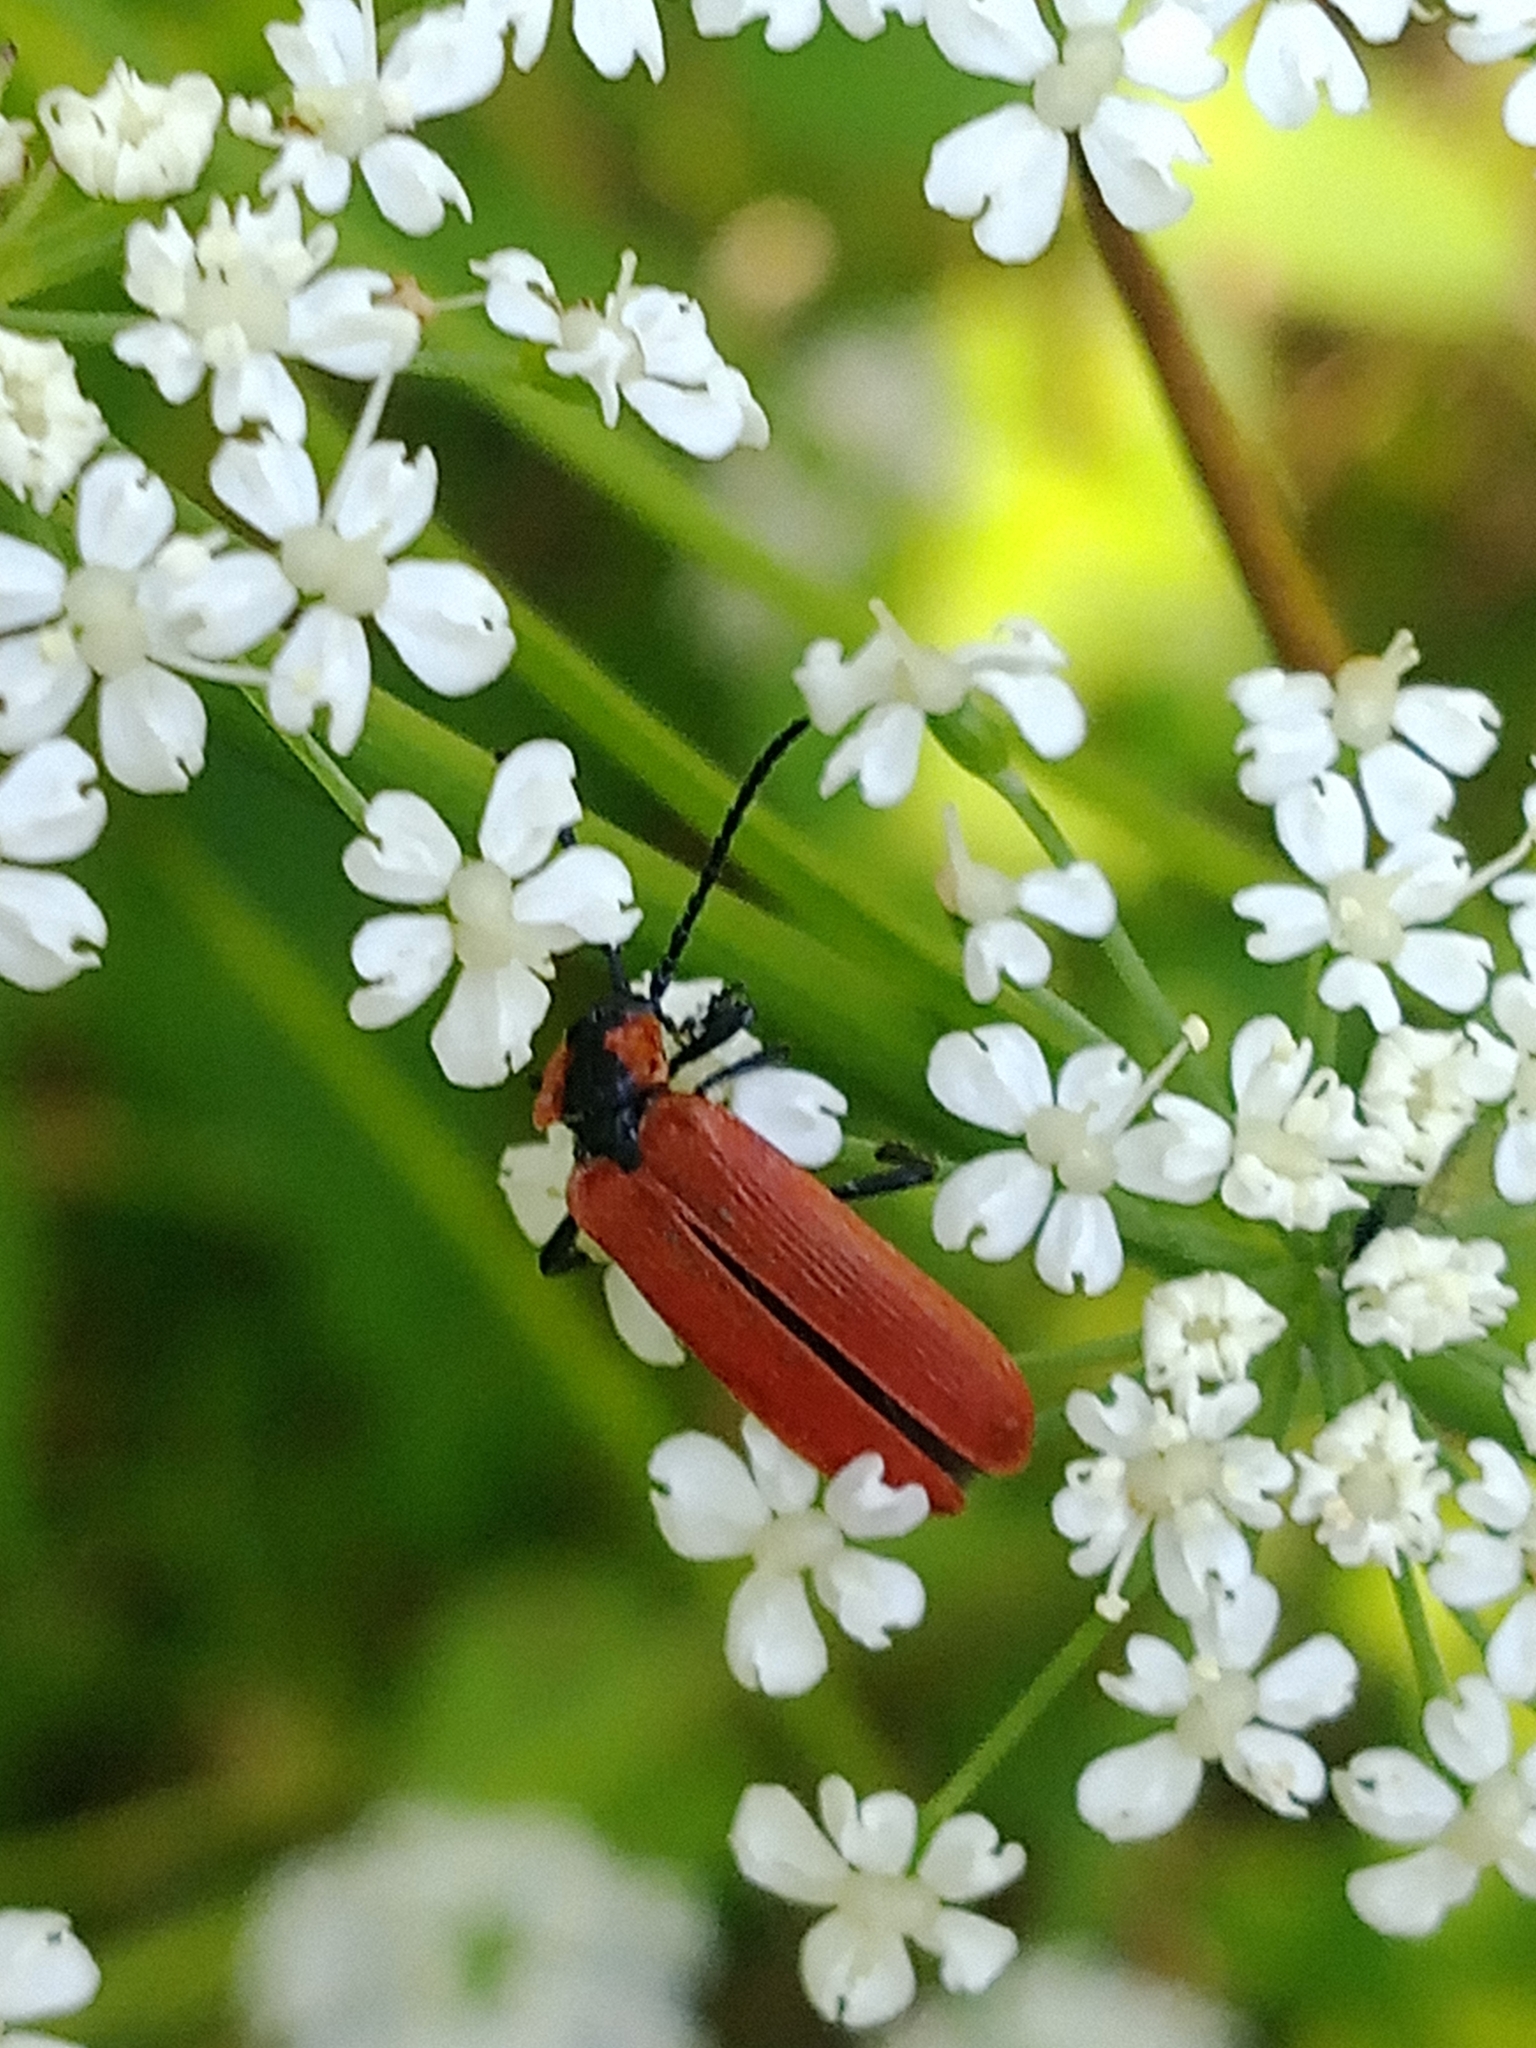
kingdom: Animalia
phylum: Arthropoda
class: Insecta
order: Coleoptera
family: Lycidae
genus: Lygistopterus
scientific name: Lygistopterus sanguineus
